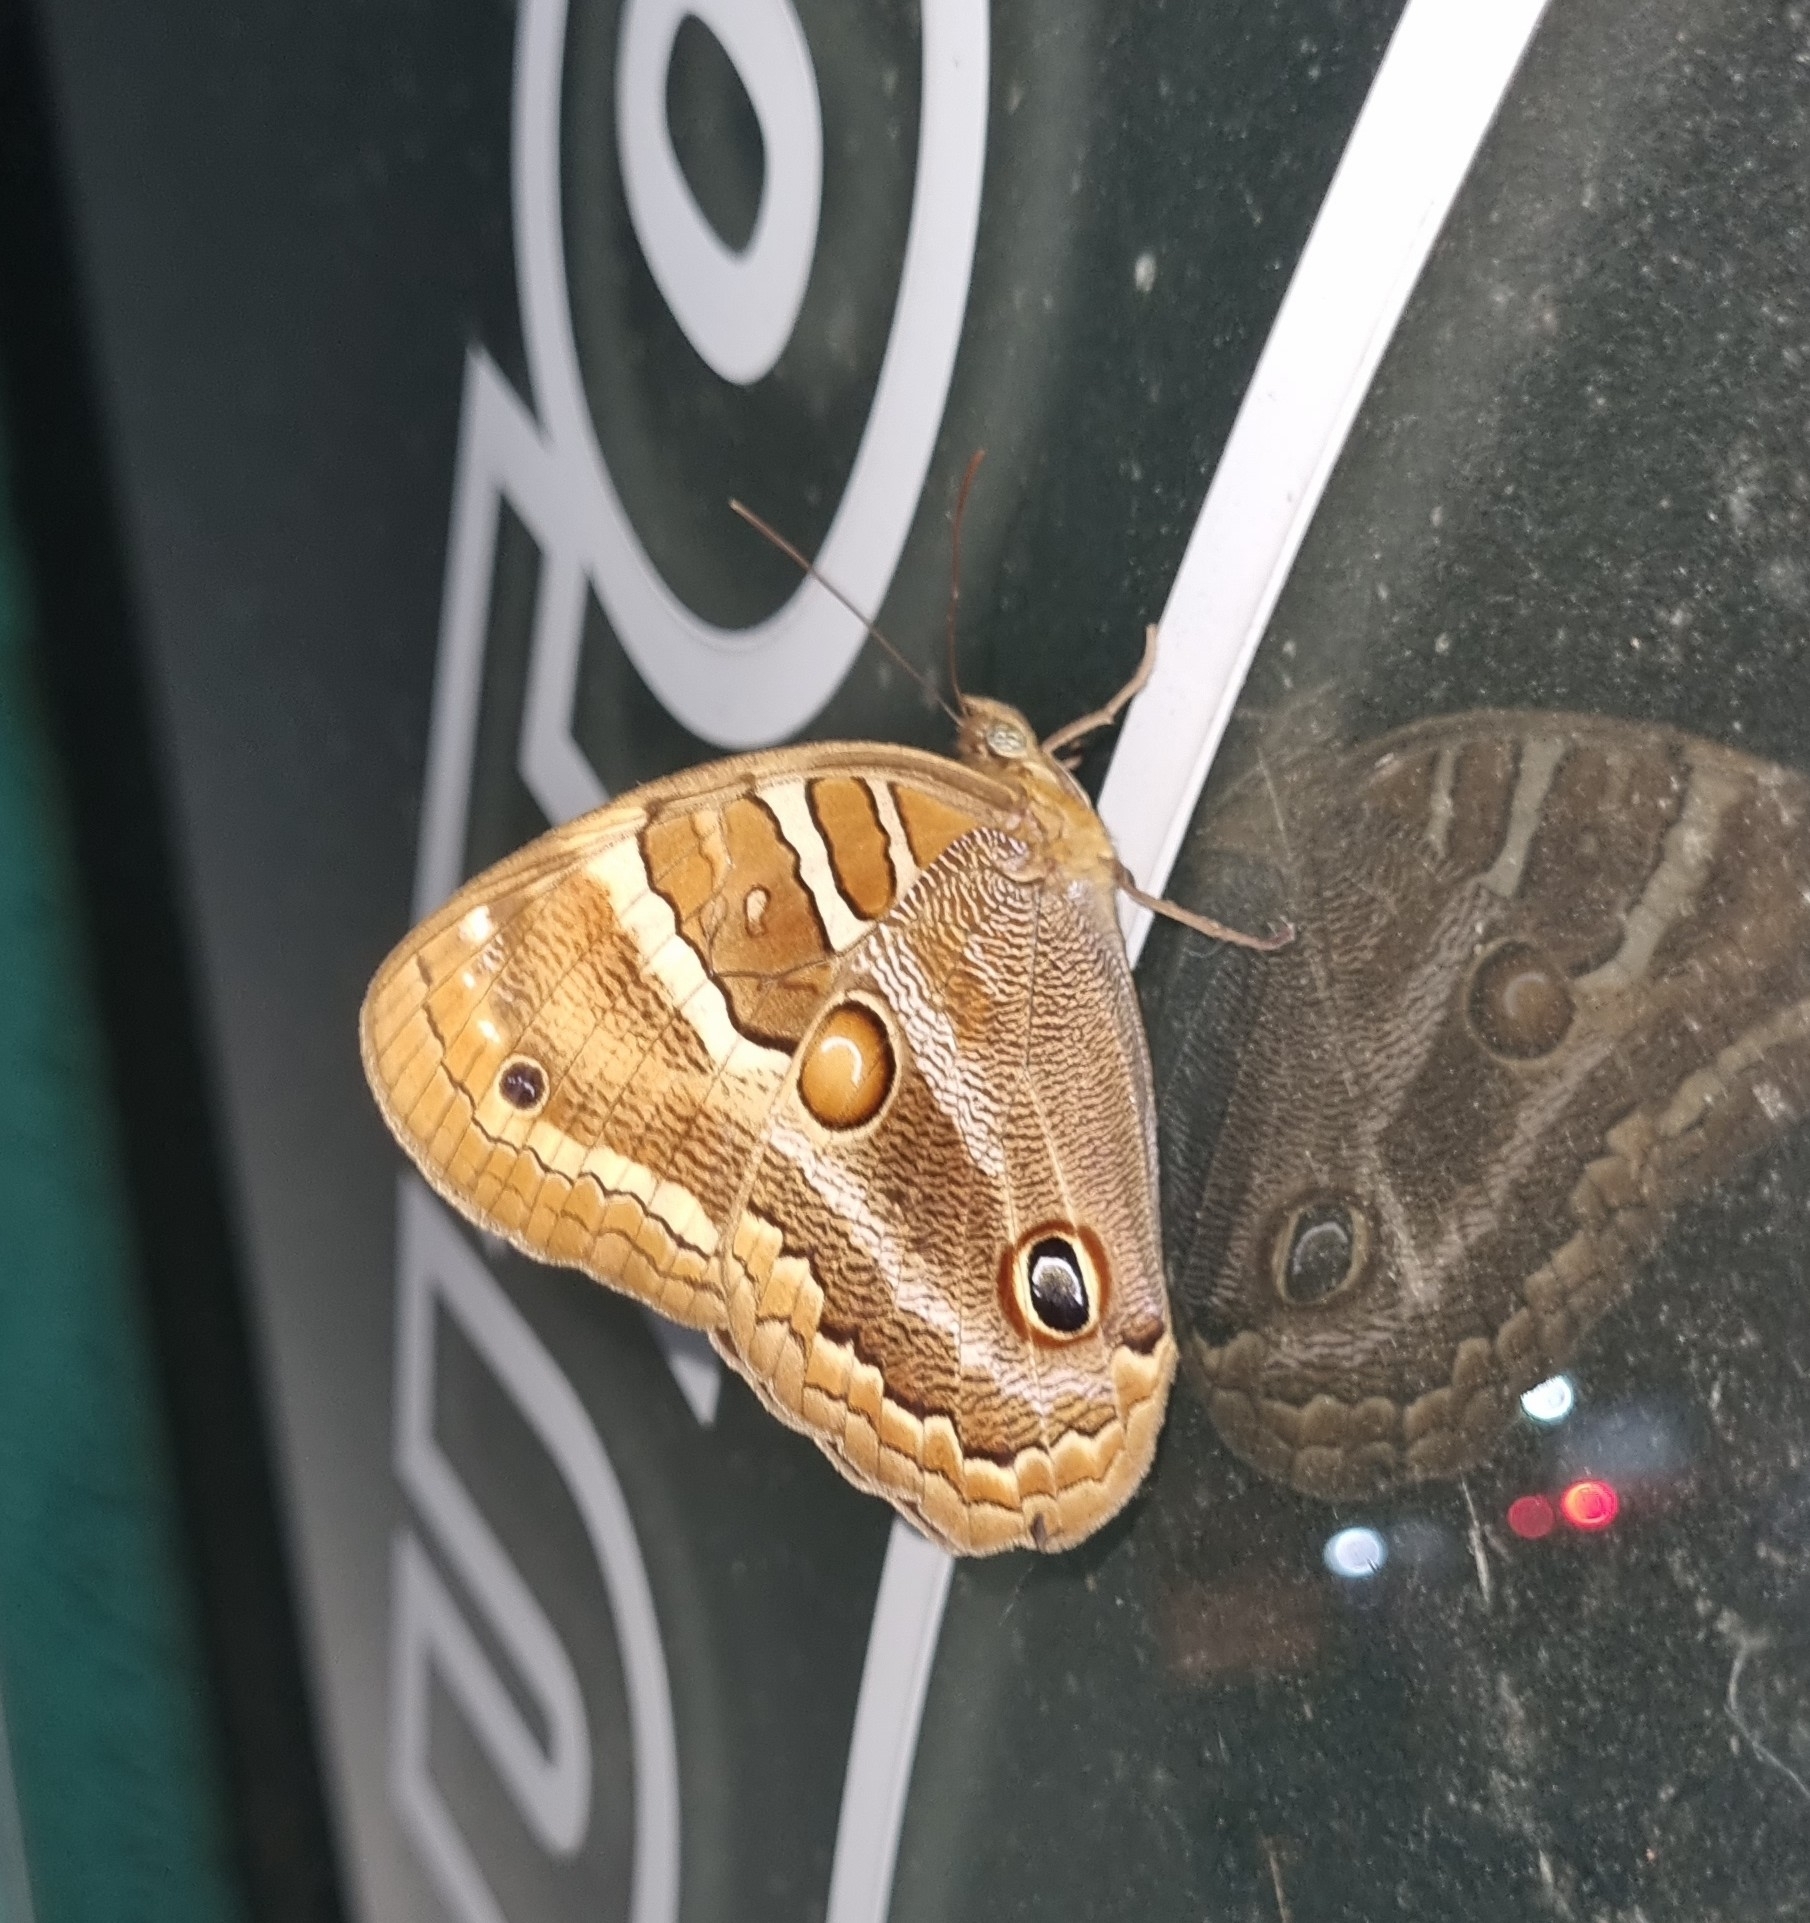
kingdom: Animalia
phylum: Arthropoda
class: Insecta
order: Lepidoptera
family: Nymphalidae
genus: Opoptera
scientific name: Opoptera syme
